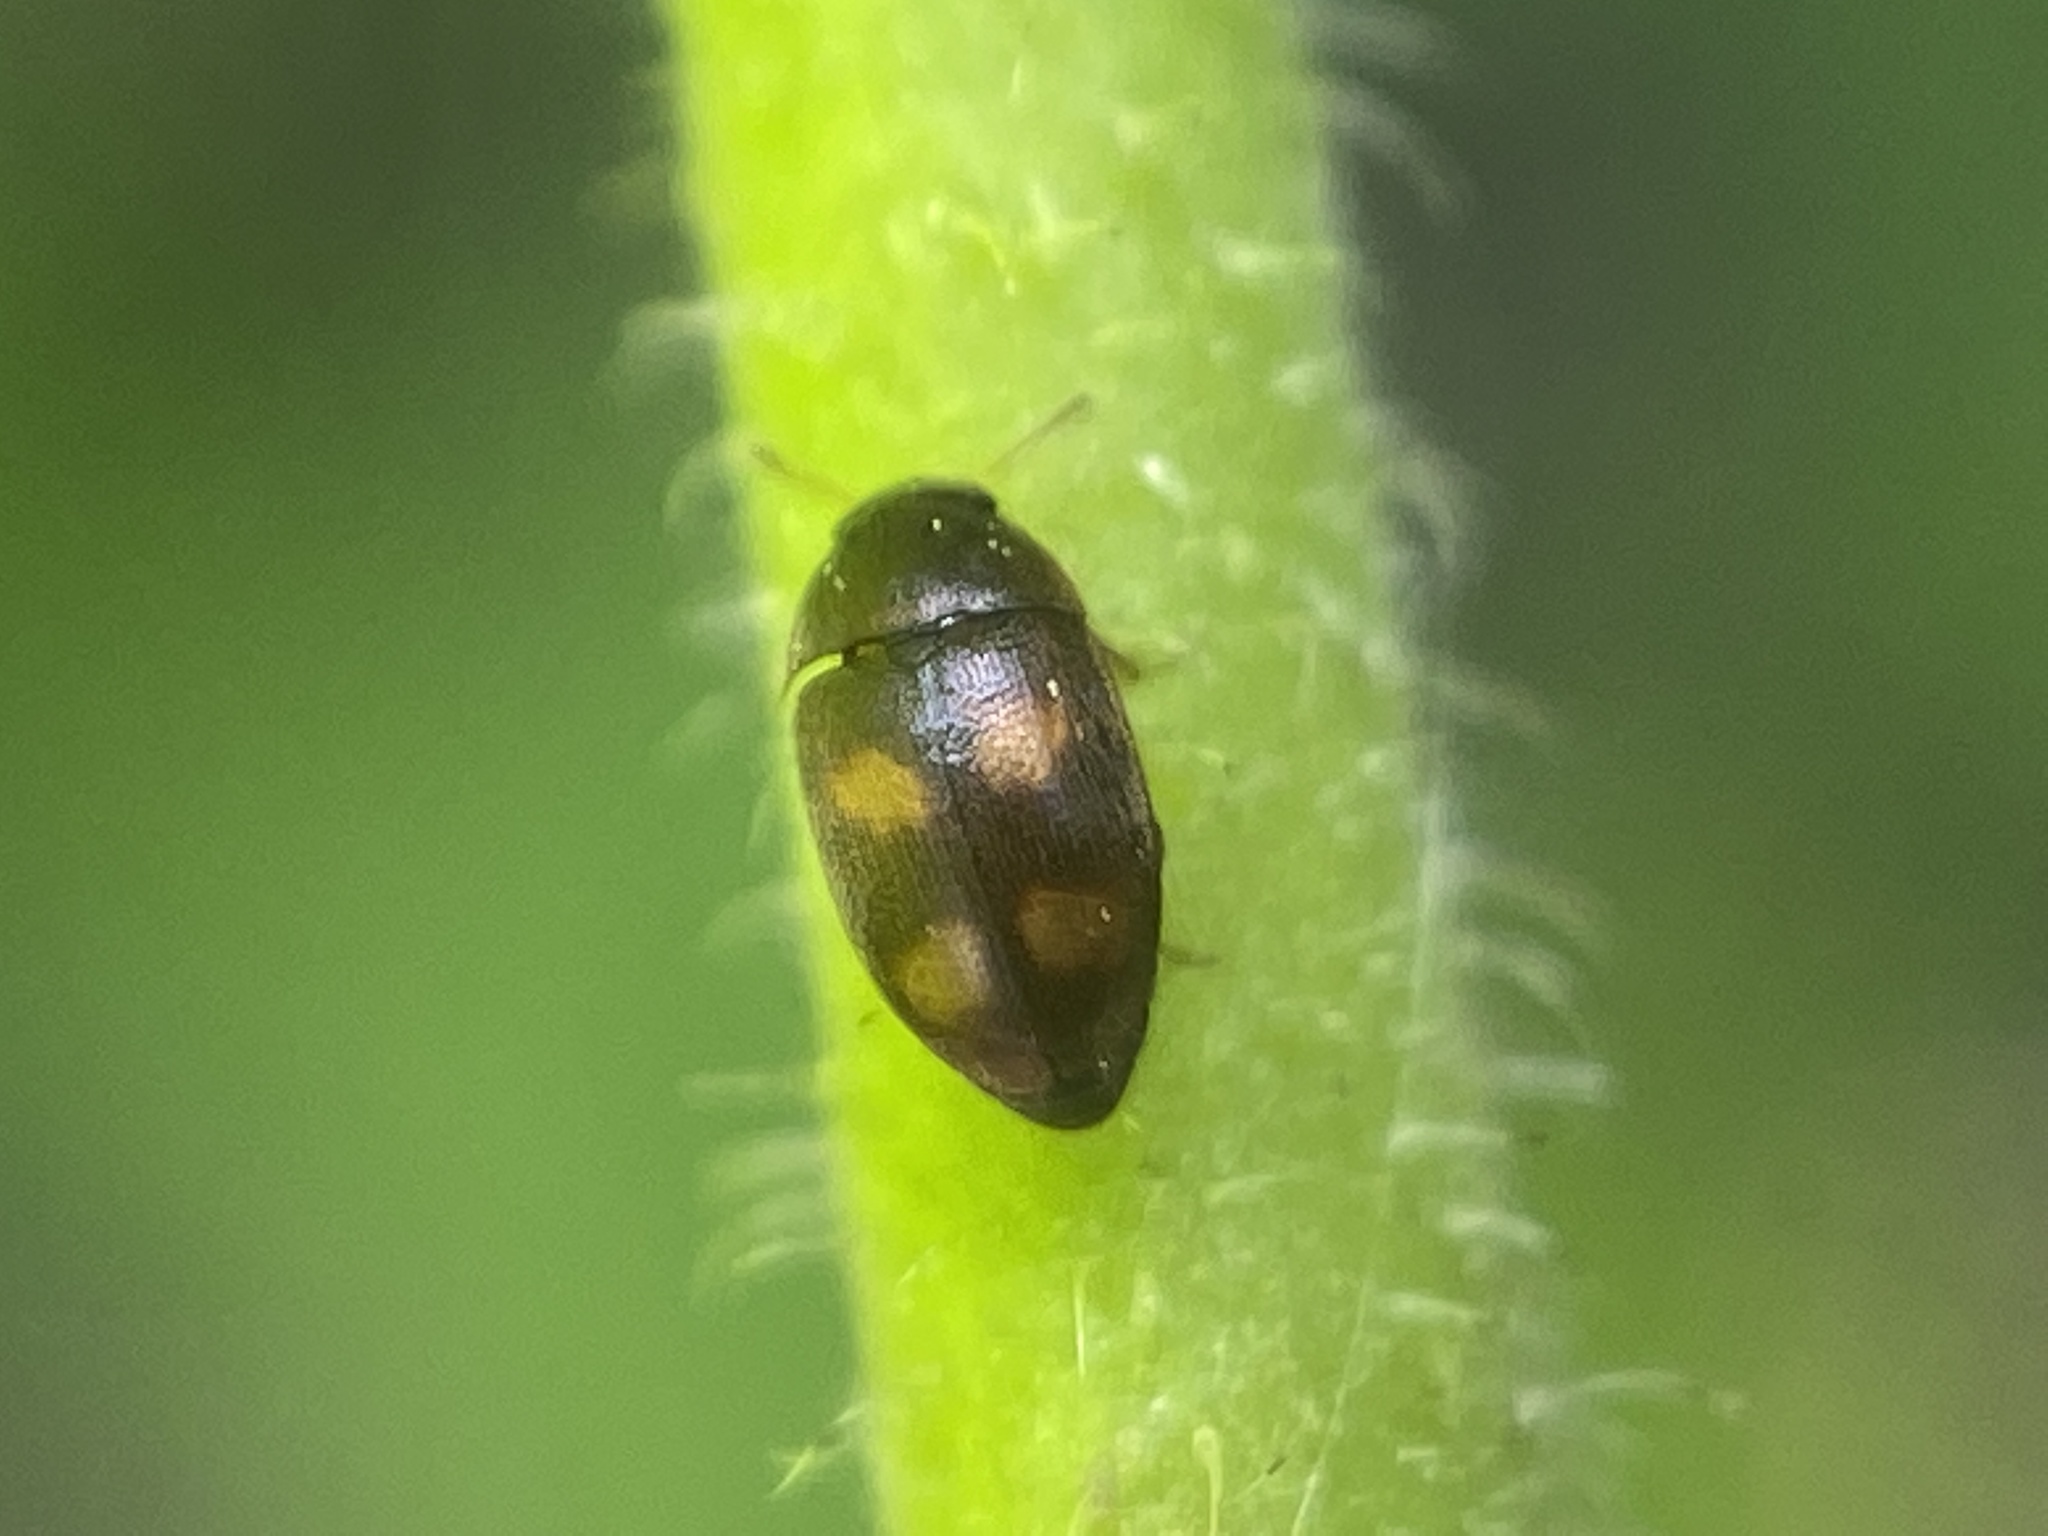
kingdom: Animalia
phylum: Arthropoda
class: Insecta
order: Coleoptera
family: Mycetophagidae
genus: Litargus
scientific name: Litargus tetraspilotus
